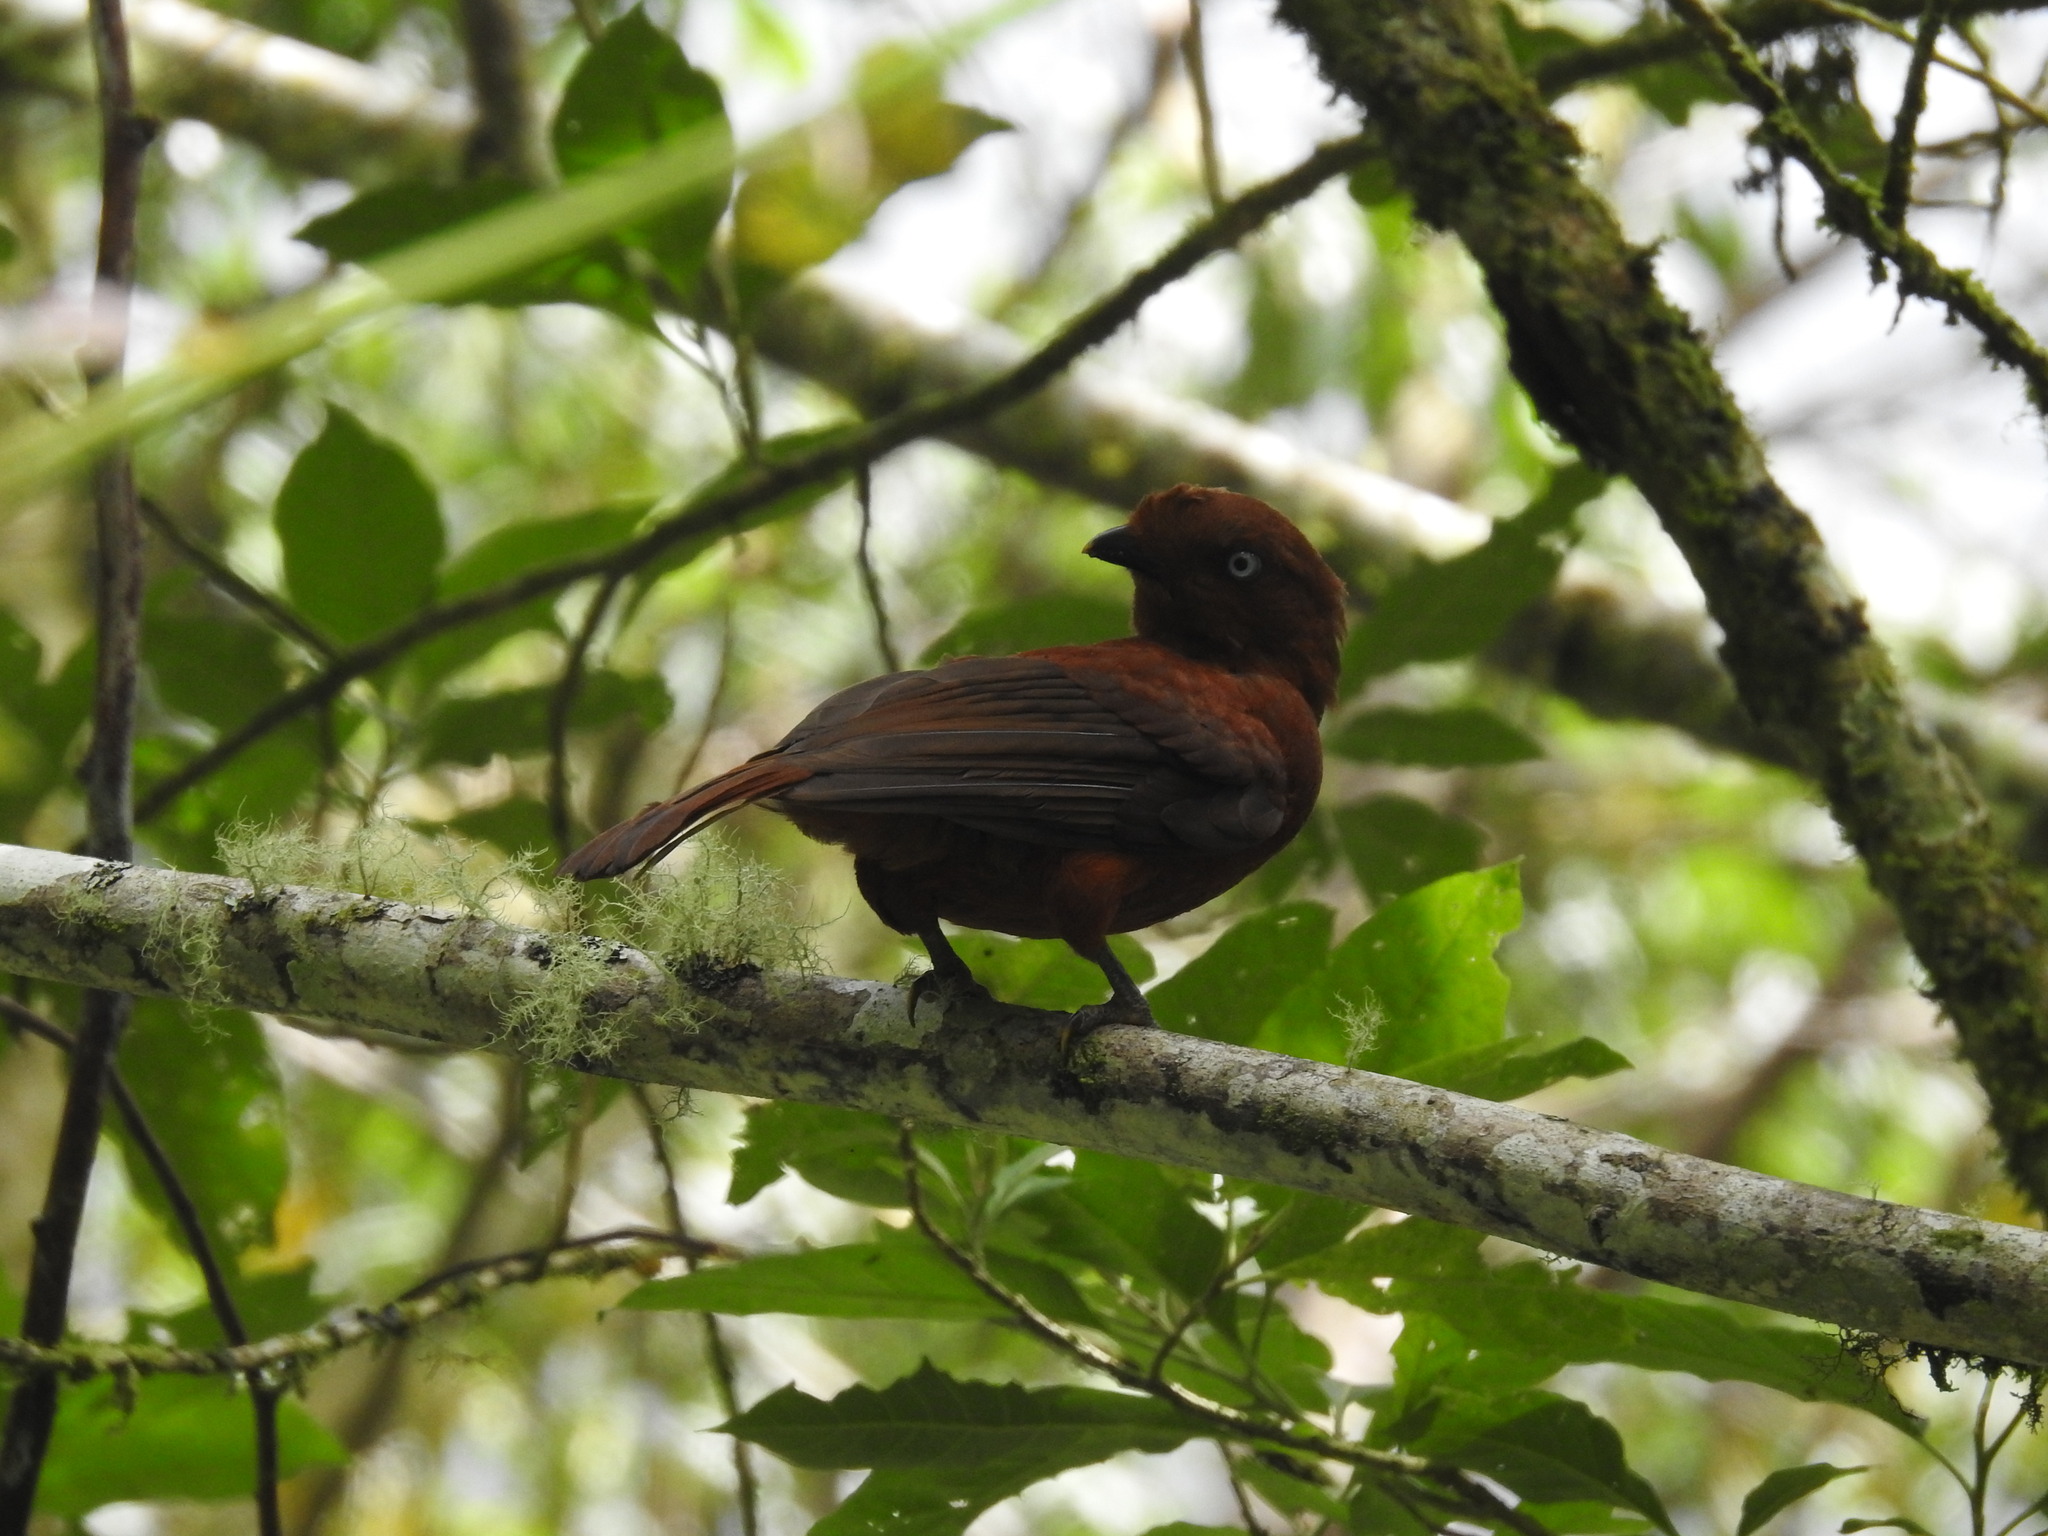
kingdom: Animalia
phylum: Chordata
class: Aves
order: Passeriformes
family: Cotingidae
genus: Rupicola
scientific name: Rupicola peruvianus
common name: Andean cock-of-the-rock
